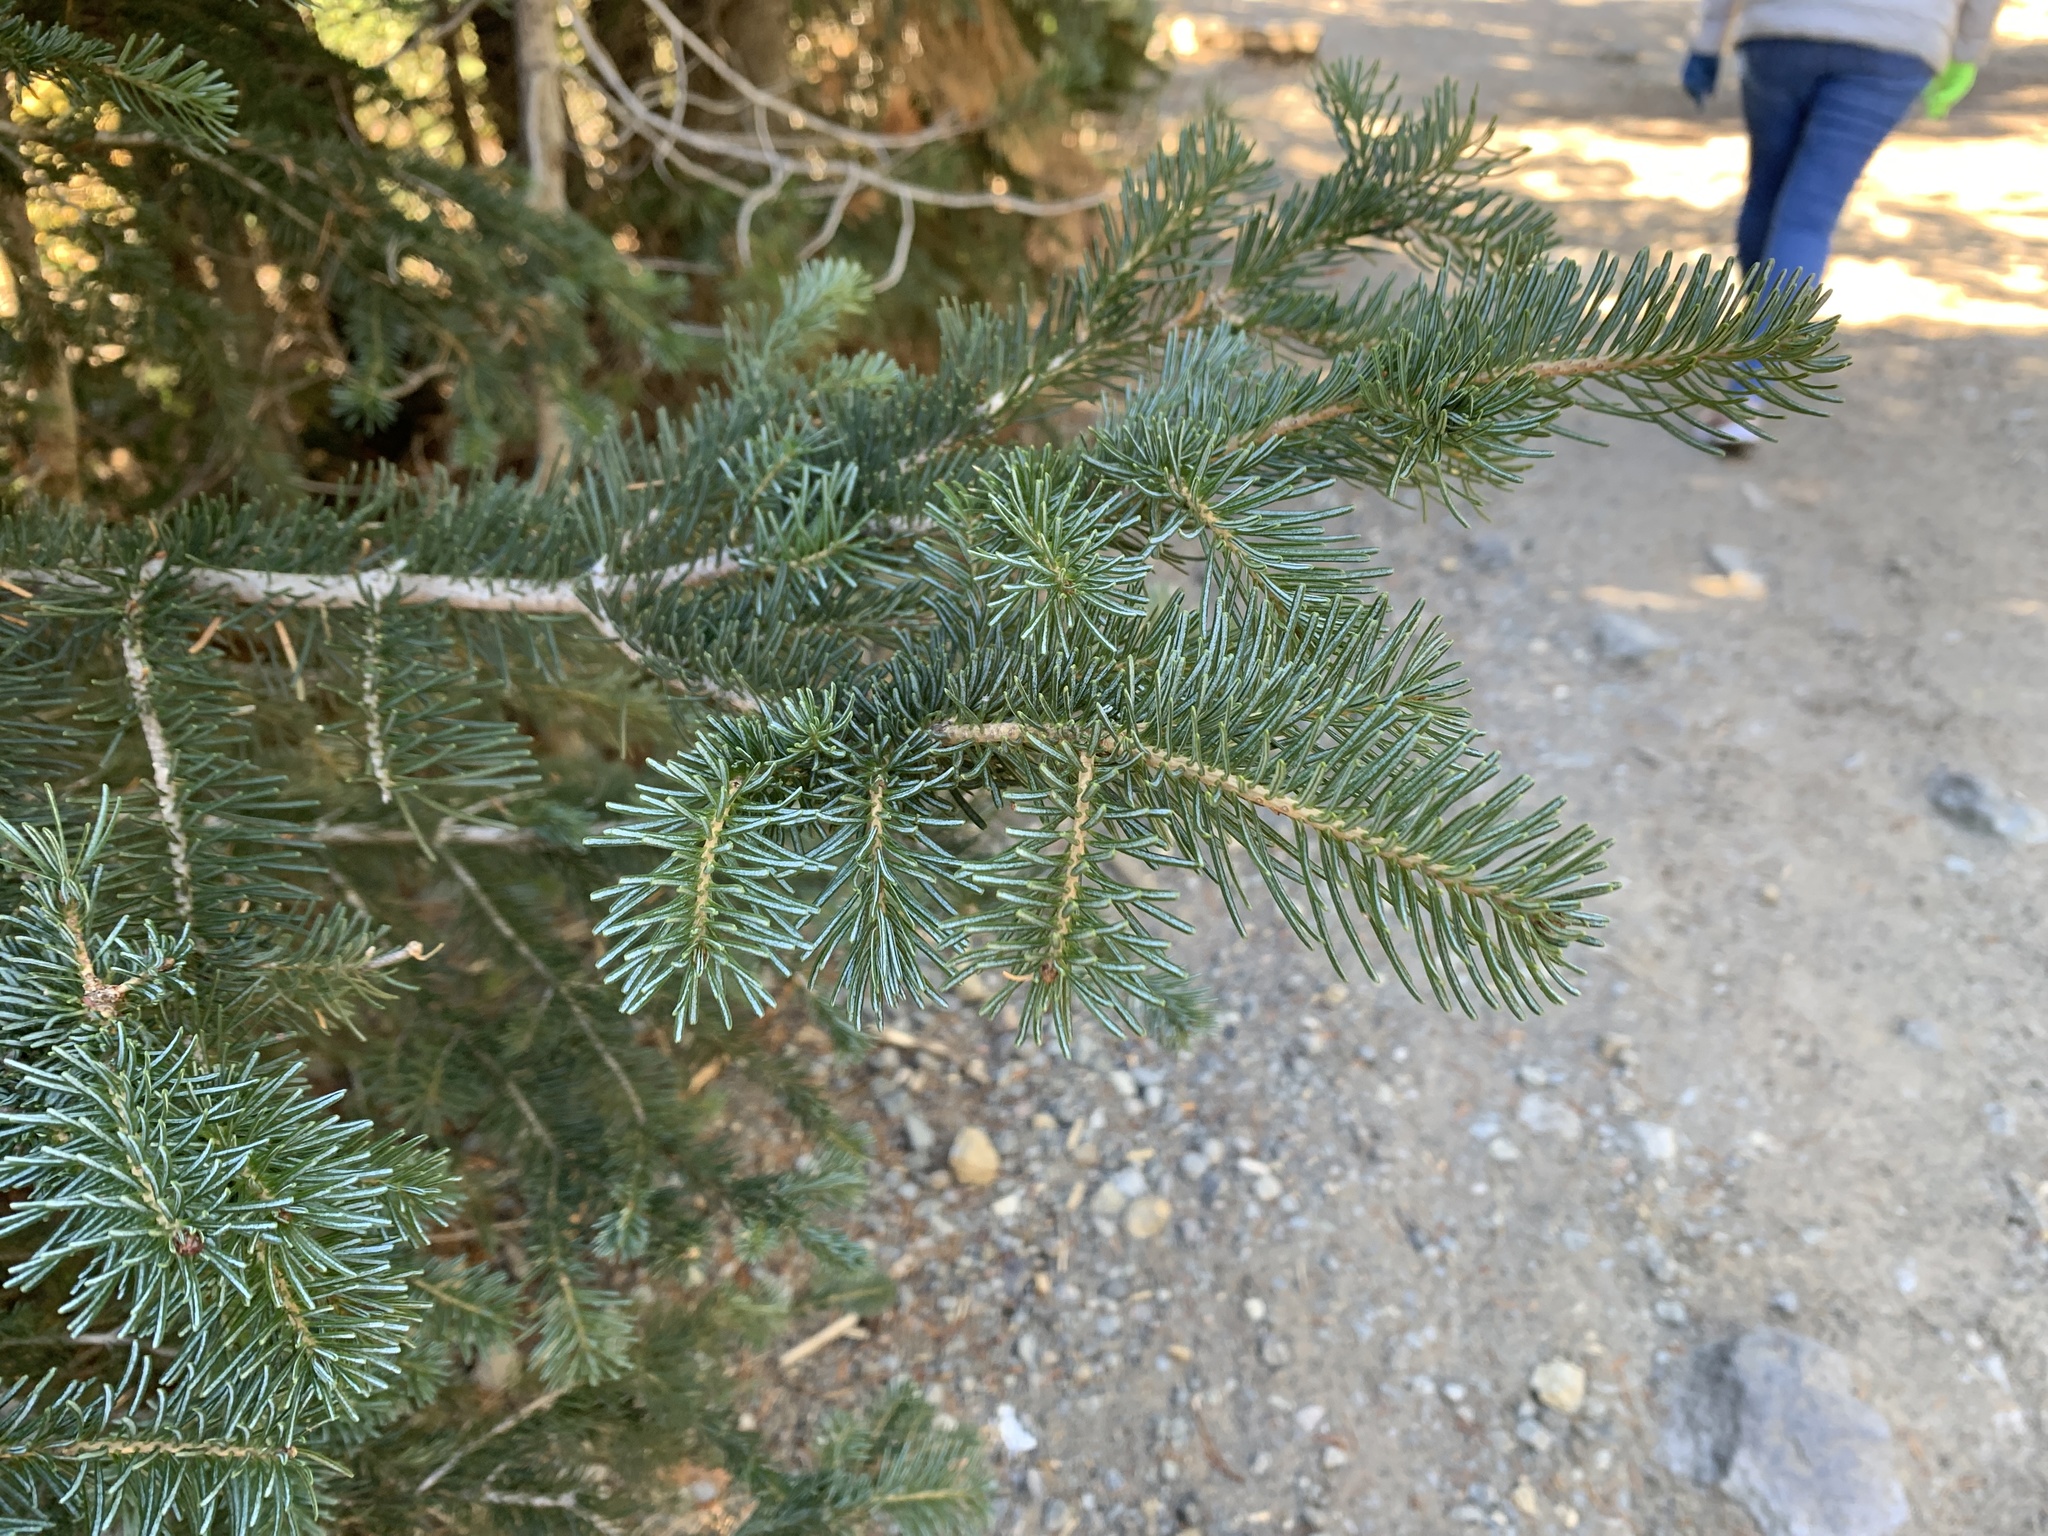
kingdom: Plantae
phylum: Tracheophyta
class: Pinopsida
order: Pinales
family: Pinaceae
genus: Abies
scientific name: Abies lasiocarpa
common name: Subalpine fir
